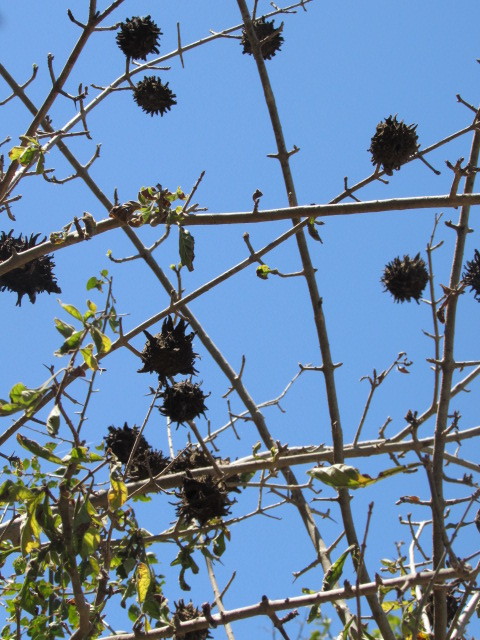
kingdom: Plantae
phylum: Tracheophyta
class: Magnoliopsida
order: Gentianales
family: Rubiaceae
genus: Randia
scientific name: Randia echinocarpa
